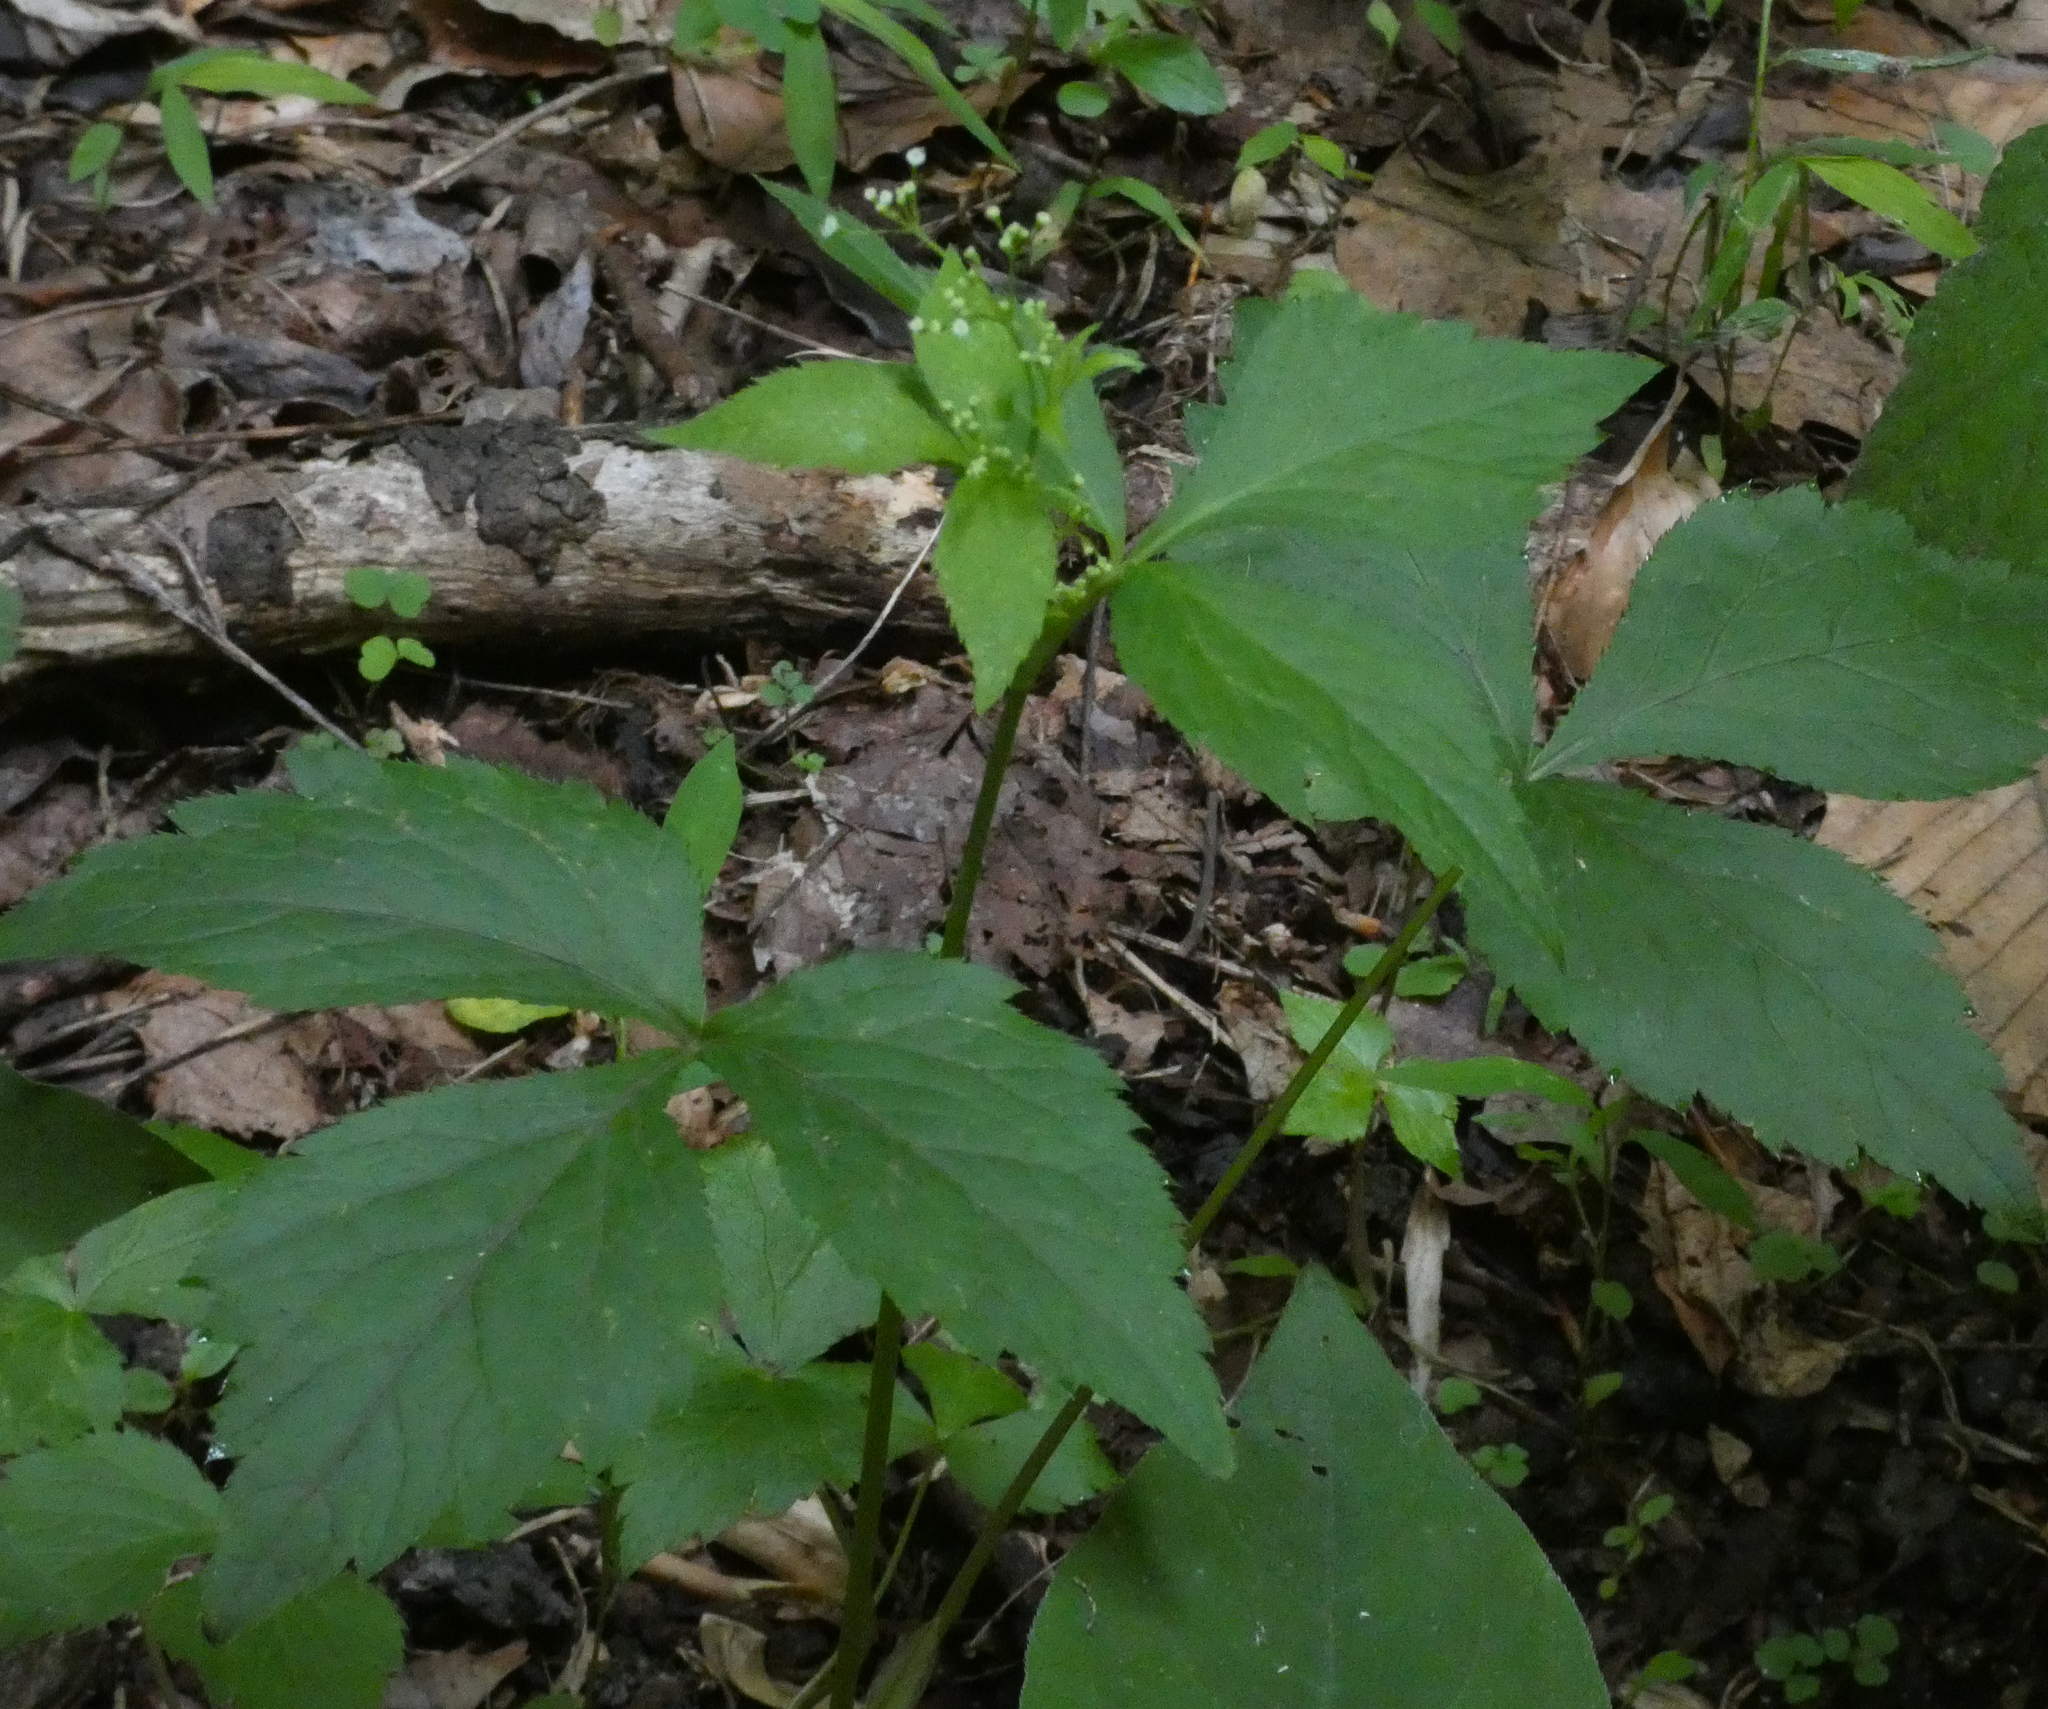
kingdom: Plantae
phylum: Tracheophyta
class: Magnoliopsida
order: Apiales
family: Apiaceae
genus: Cryptotaenia
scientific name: Cryptotaenia canadensis
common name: Honewort
